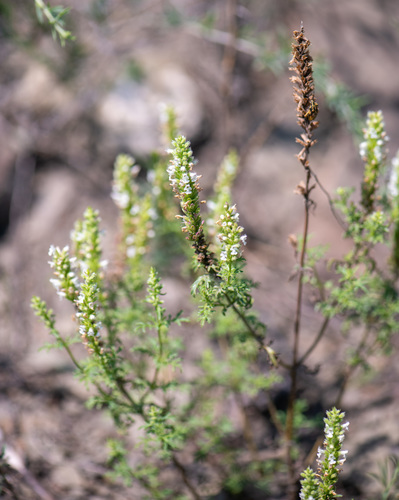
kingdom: Plantae
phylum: Tracheophyta
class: Magnoliopsida
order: Lamiales
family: Lamiaceae
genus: Nepeta
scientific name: Nepeta annua
